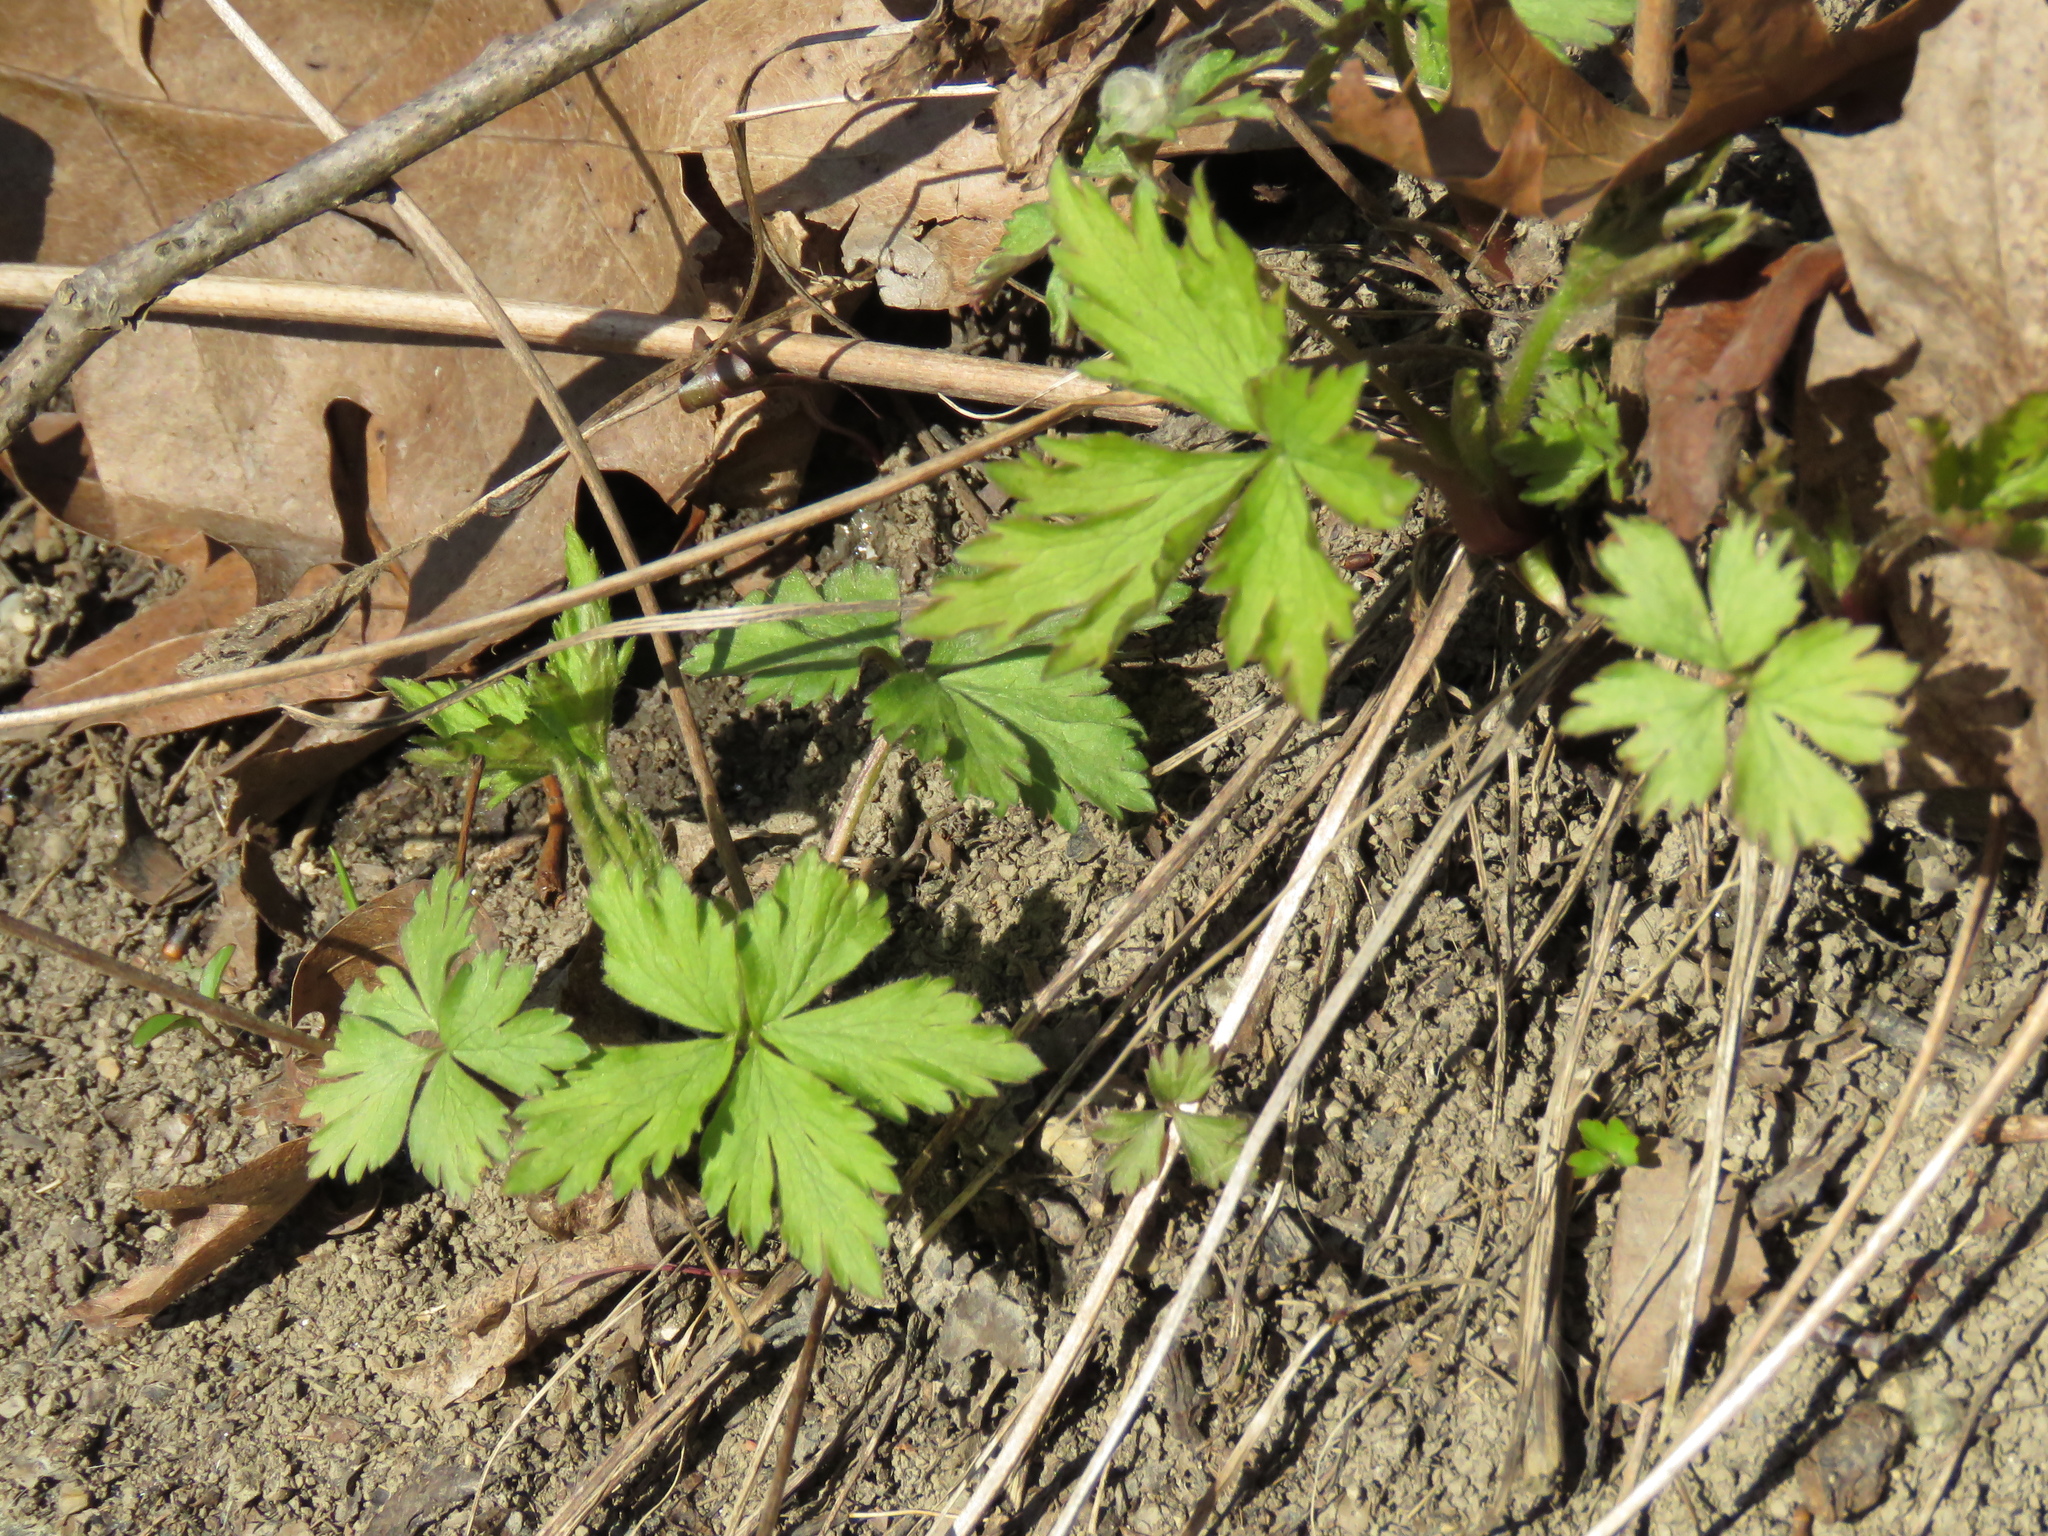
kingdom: Plantae
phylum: Tracheophyta
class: Magnoliopsida
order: Ranunculales
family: Ranunculaceae
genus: Anemone
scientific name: Anemone quinquefolia
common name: Wood anemone
